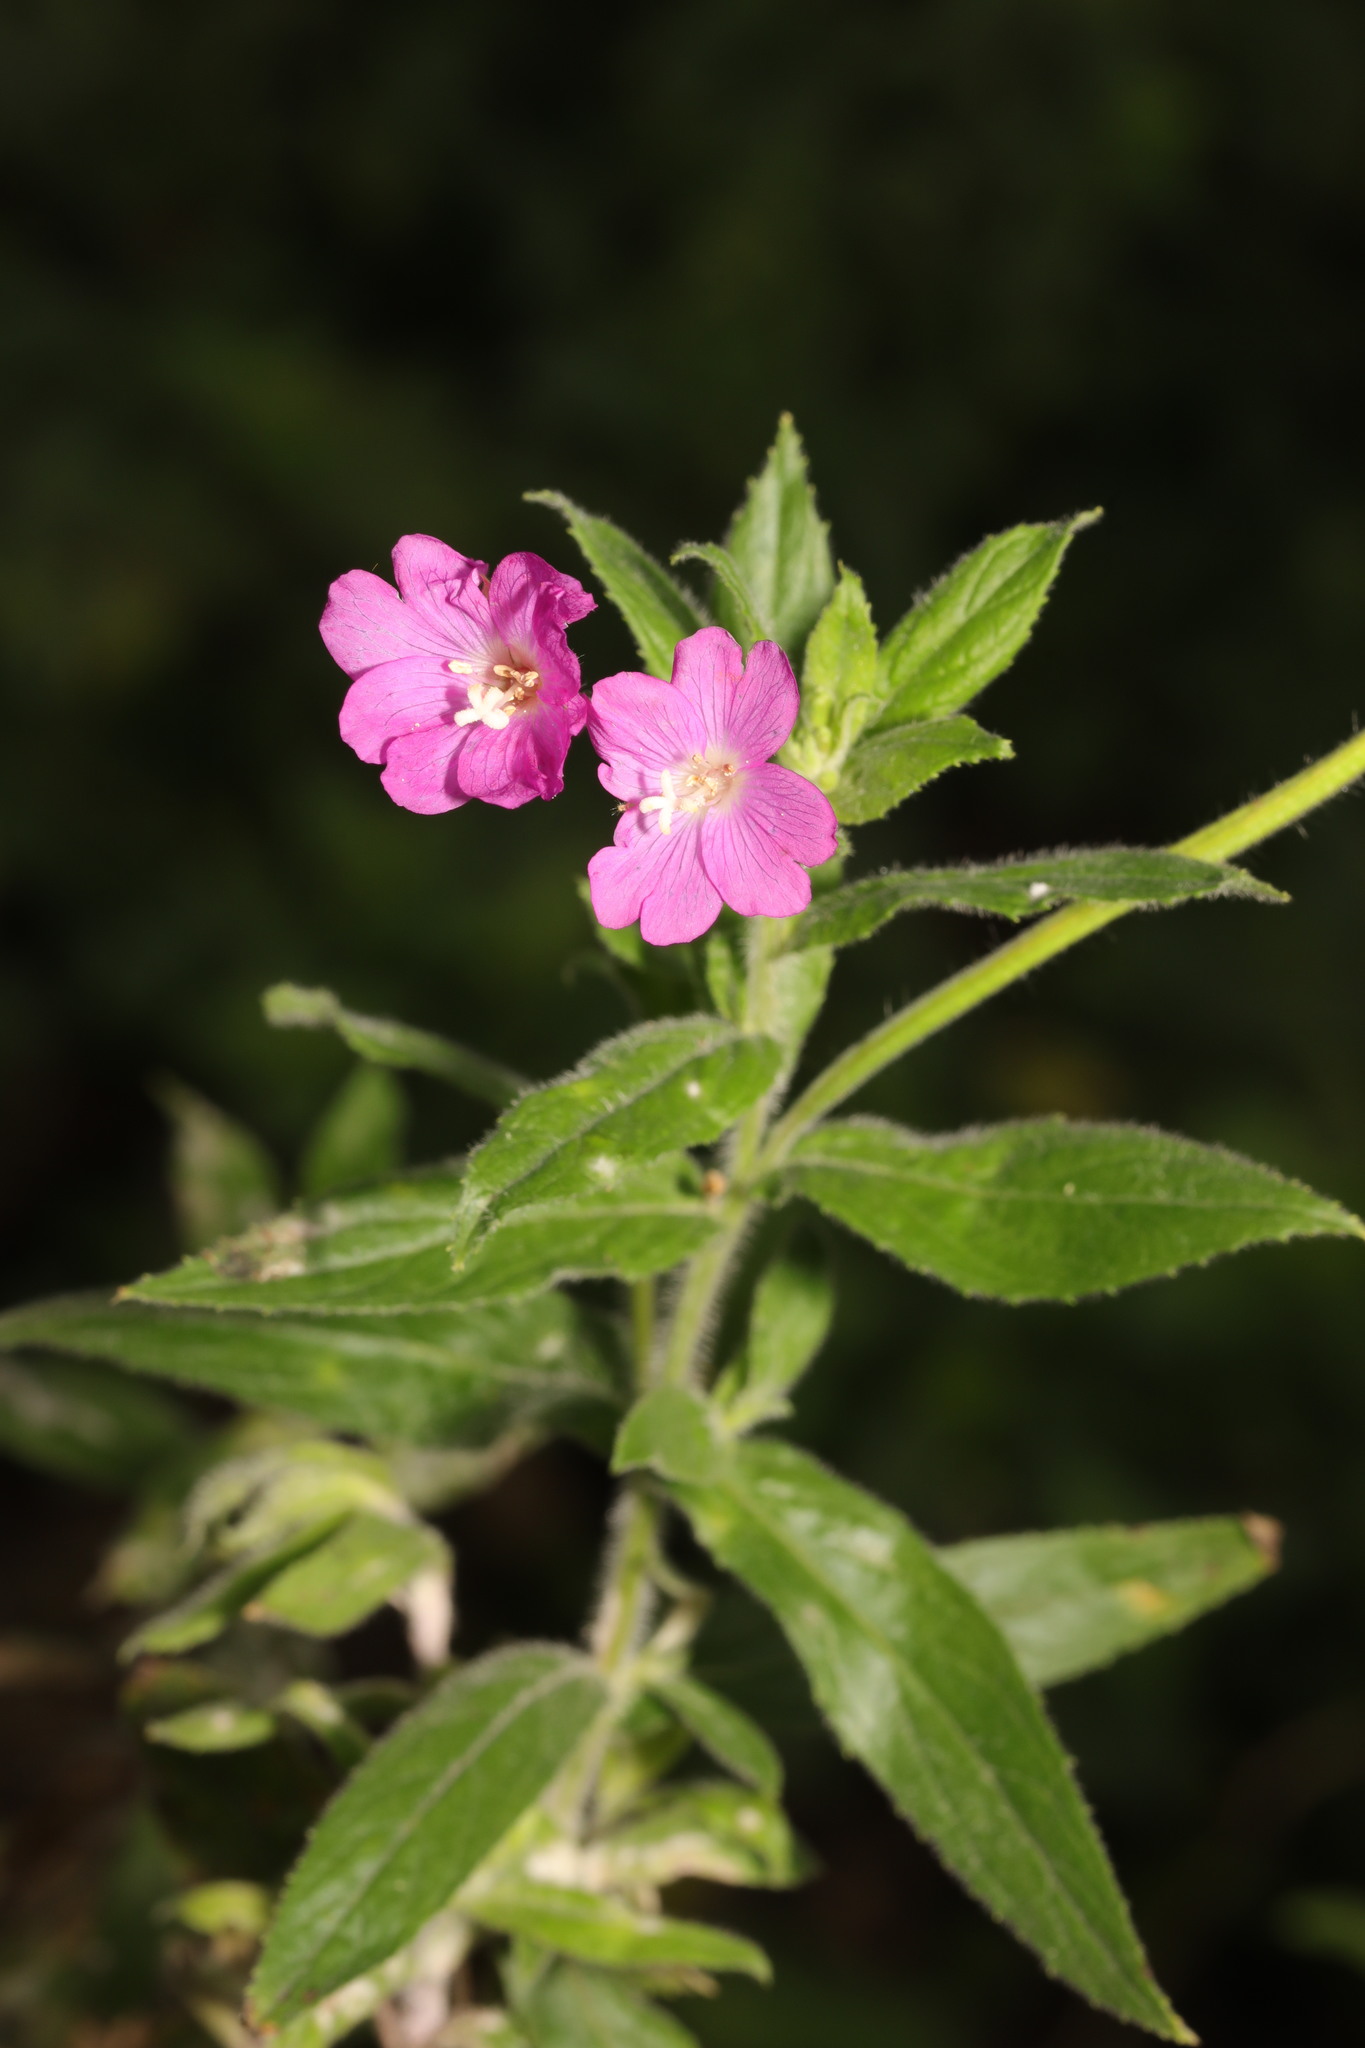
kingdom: Plantae
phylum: Tracheophyta
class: Magnoliopsida
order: Myrtales
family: Onagraceae
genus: Epilobium
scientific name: Epilobium hirsutum
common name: Great willowherb
